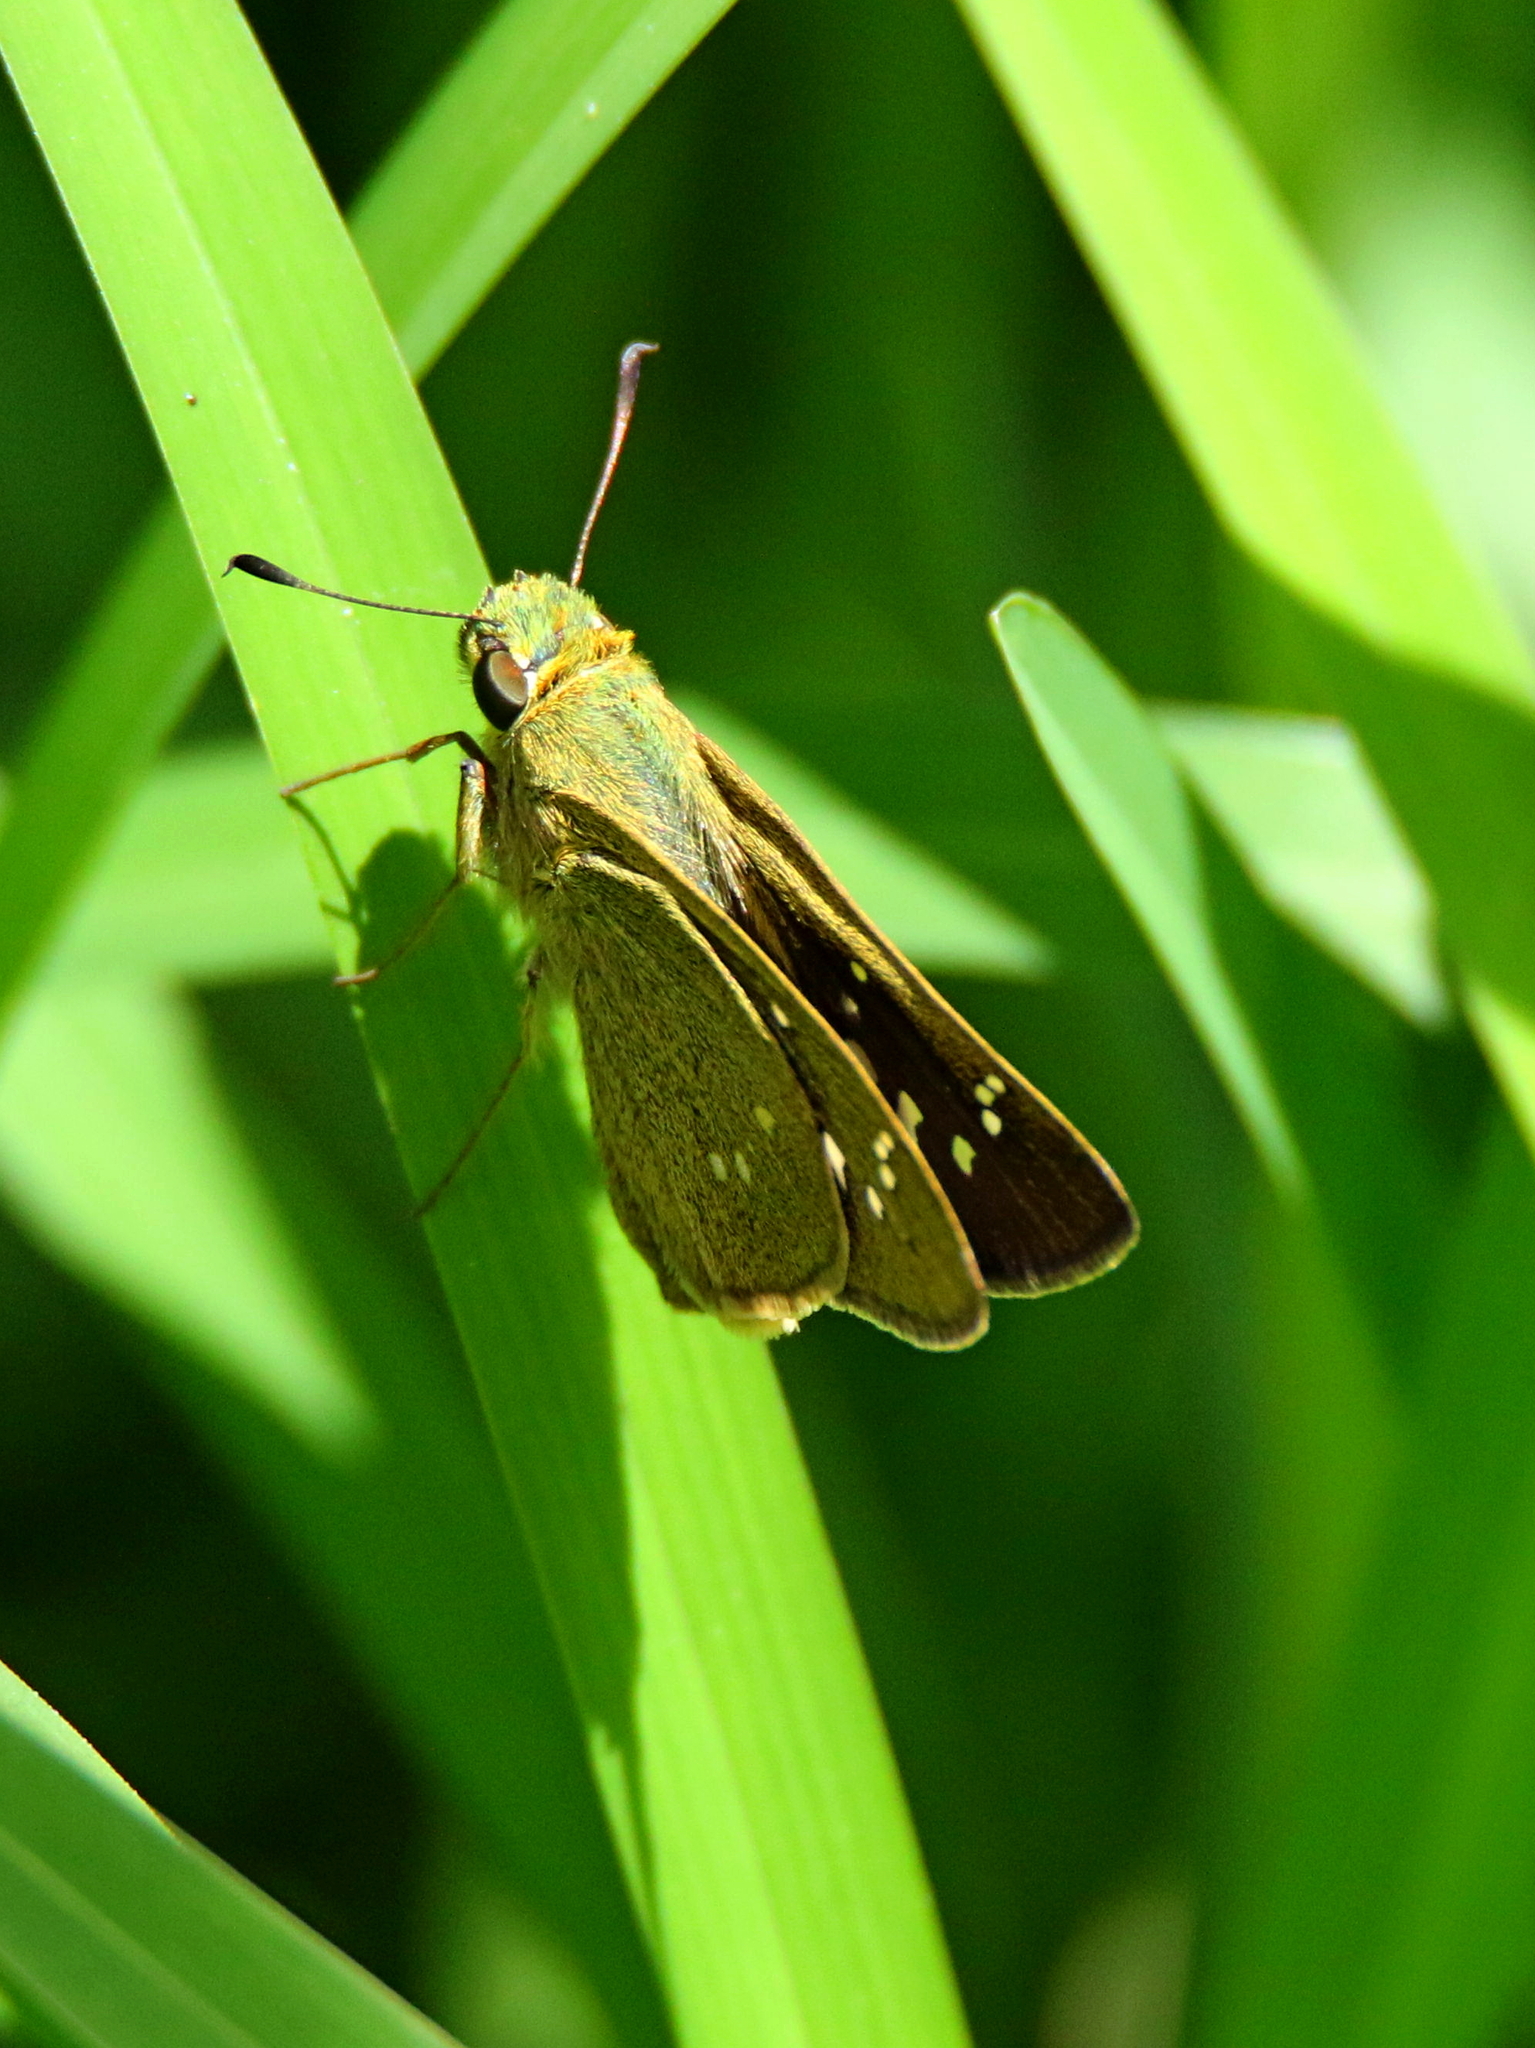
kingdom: Animalia
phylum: Arthropoda
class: Insecta
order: Lepidoptera
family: Hesperiidae
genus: Pelopidas
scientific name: Pelopidas mathias
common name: Black-branded swift
